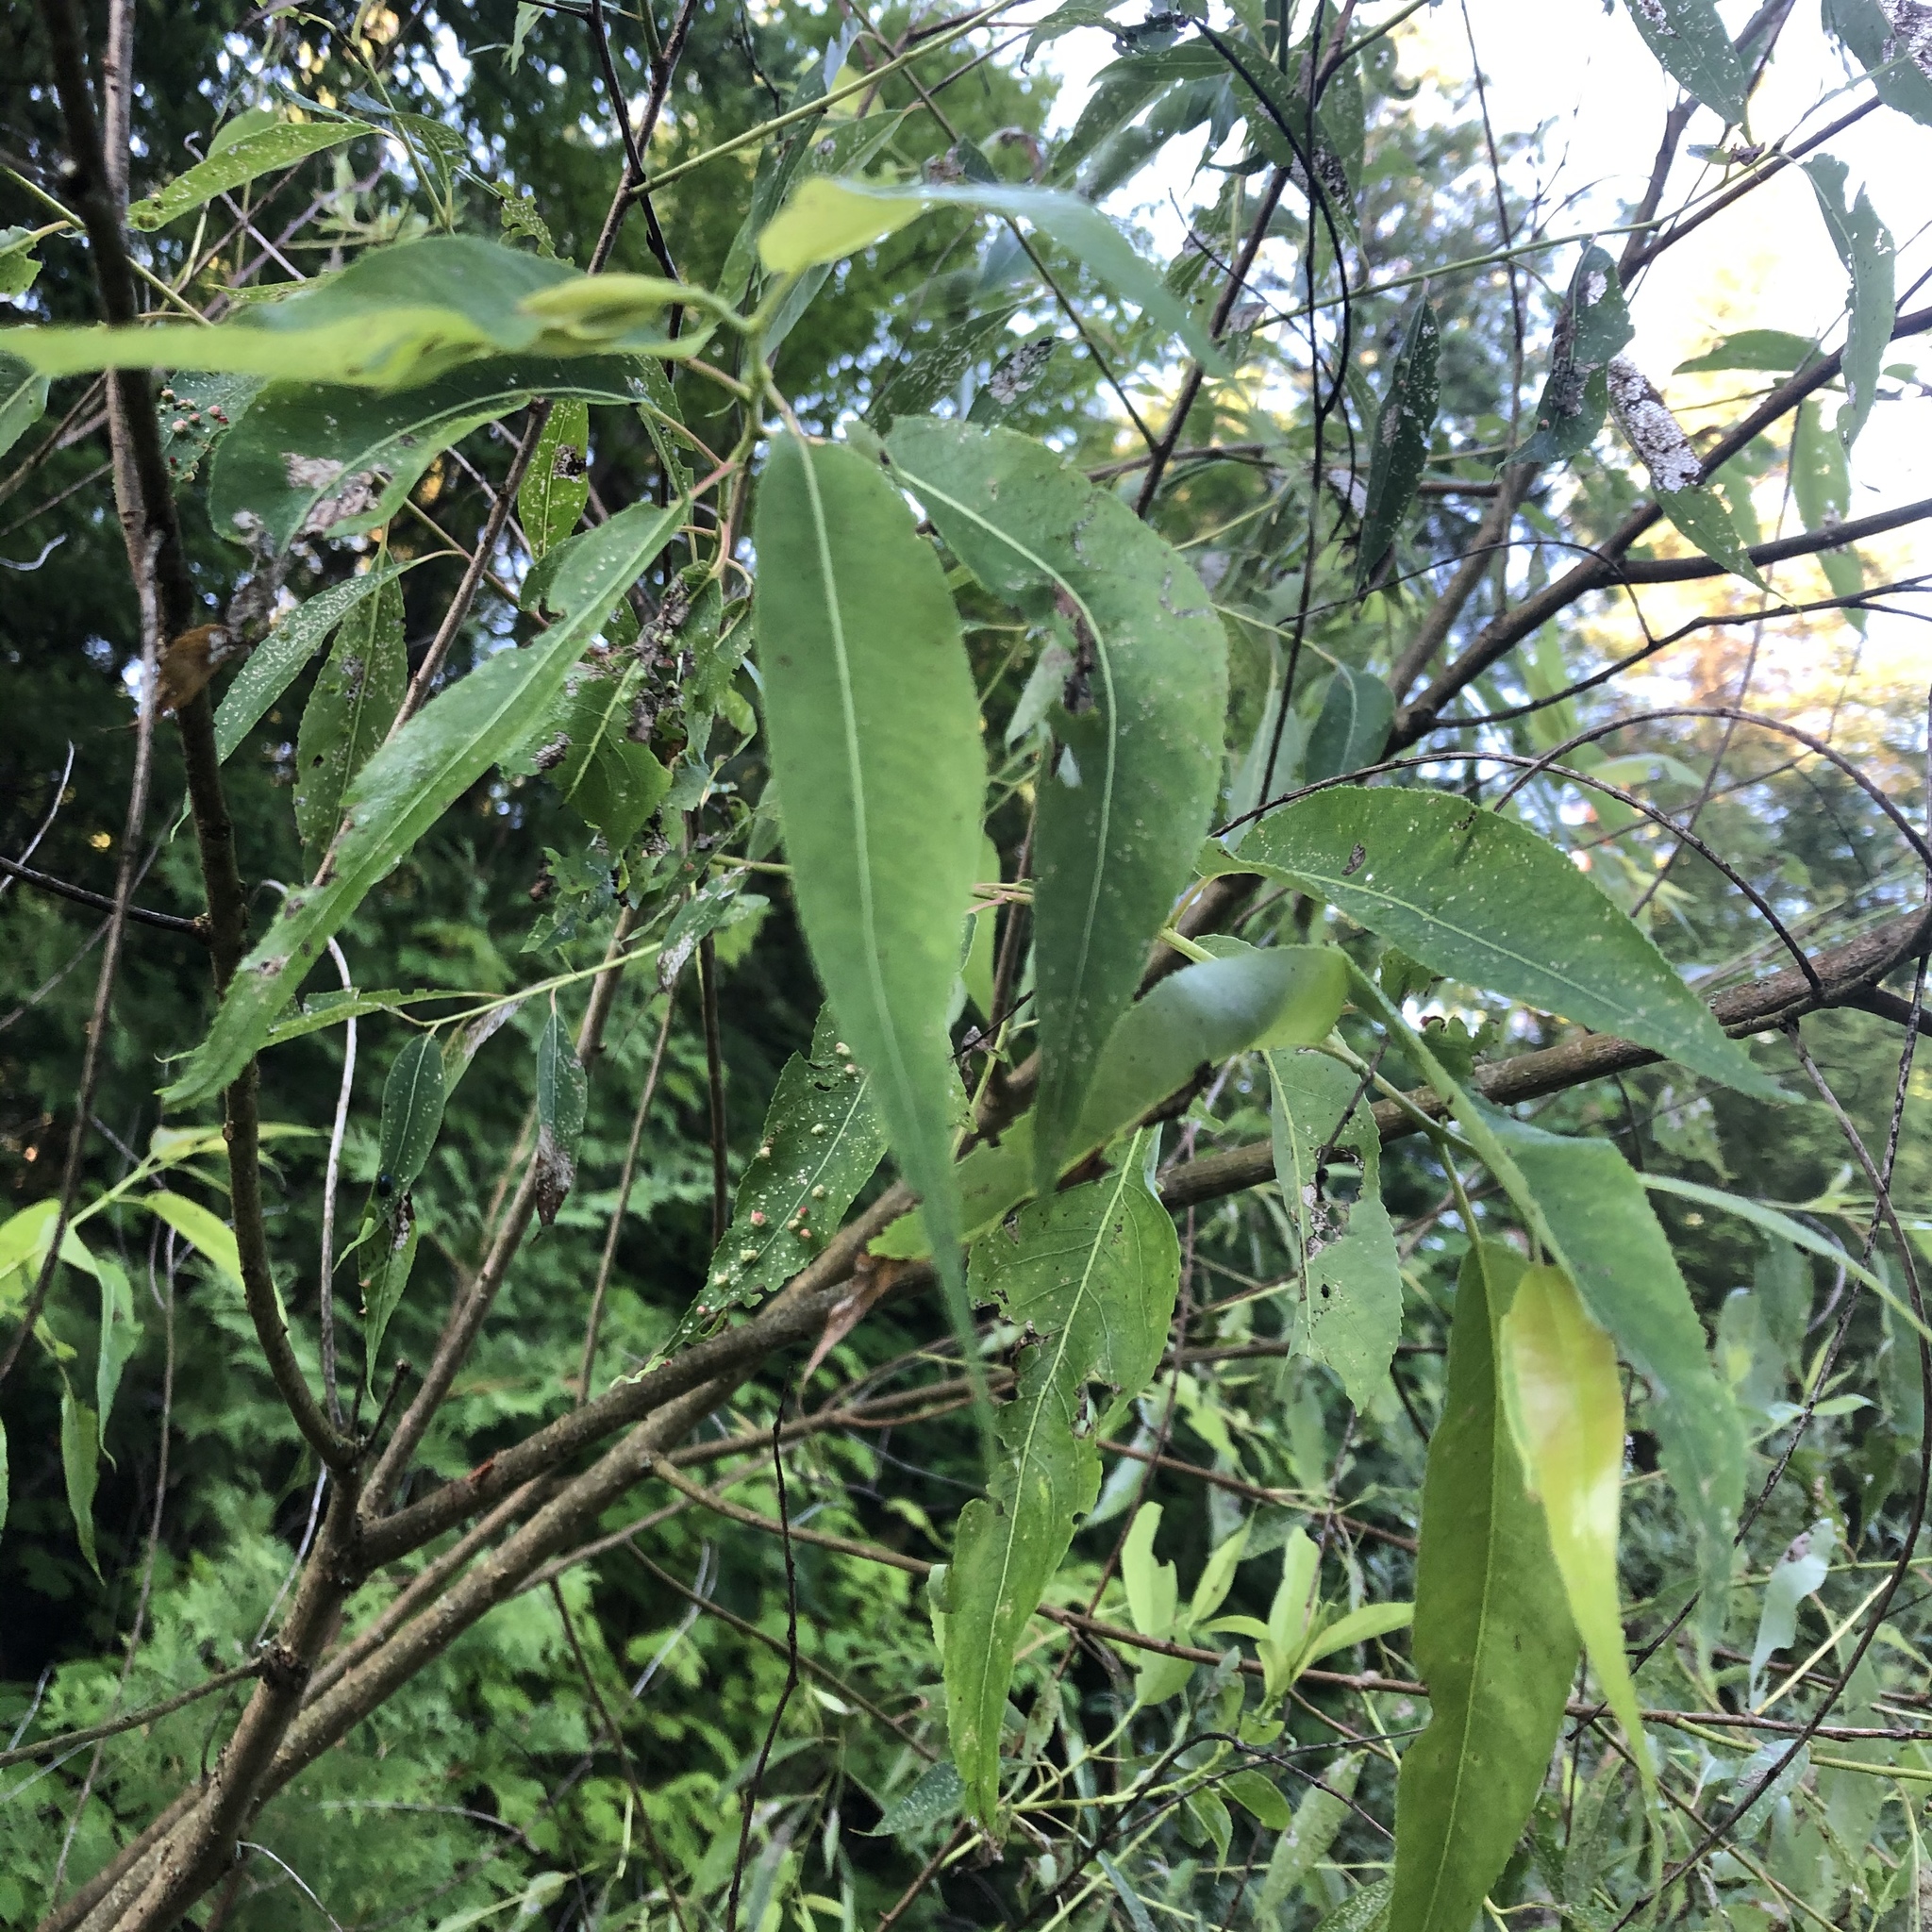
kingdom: Plantae
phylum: Tracheophyta
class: Magnoliopsida
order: Malpighiales
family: Salicaceae
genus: Salix
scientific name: Salix amygdaloides
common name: Peach leaf willow
